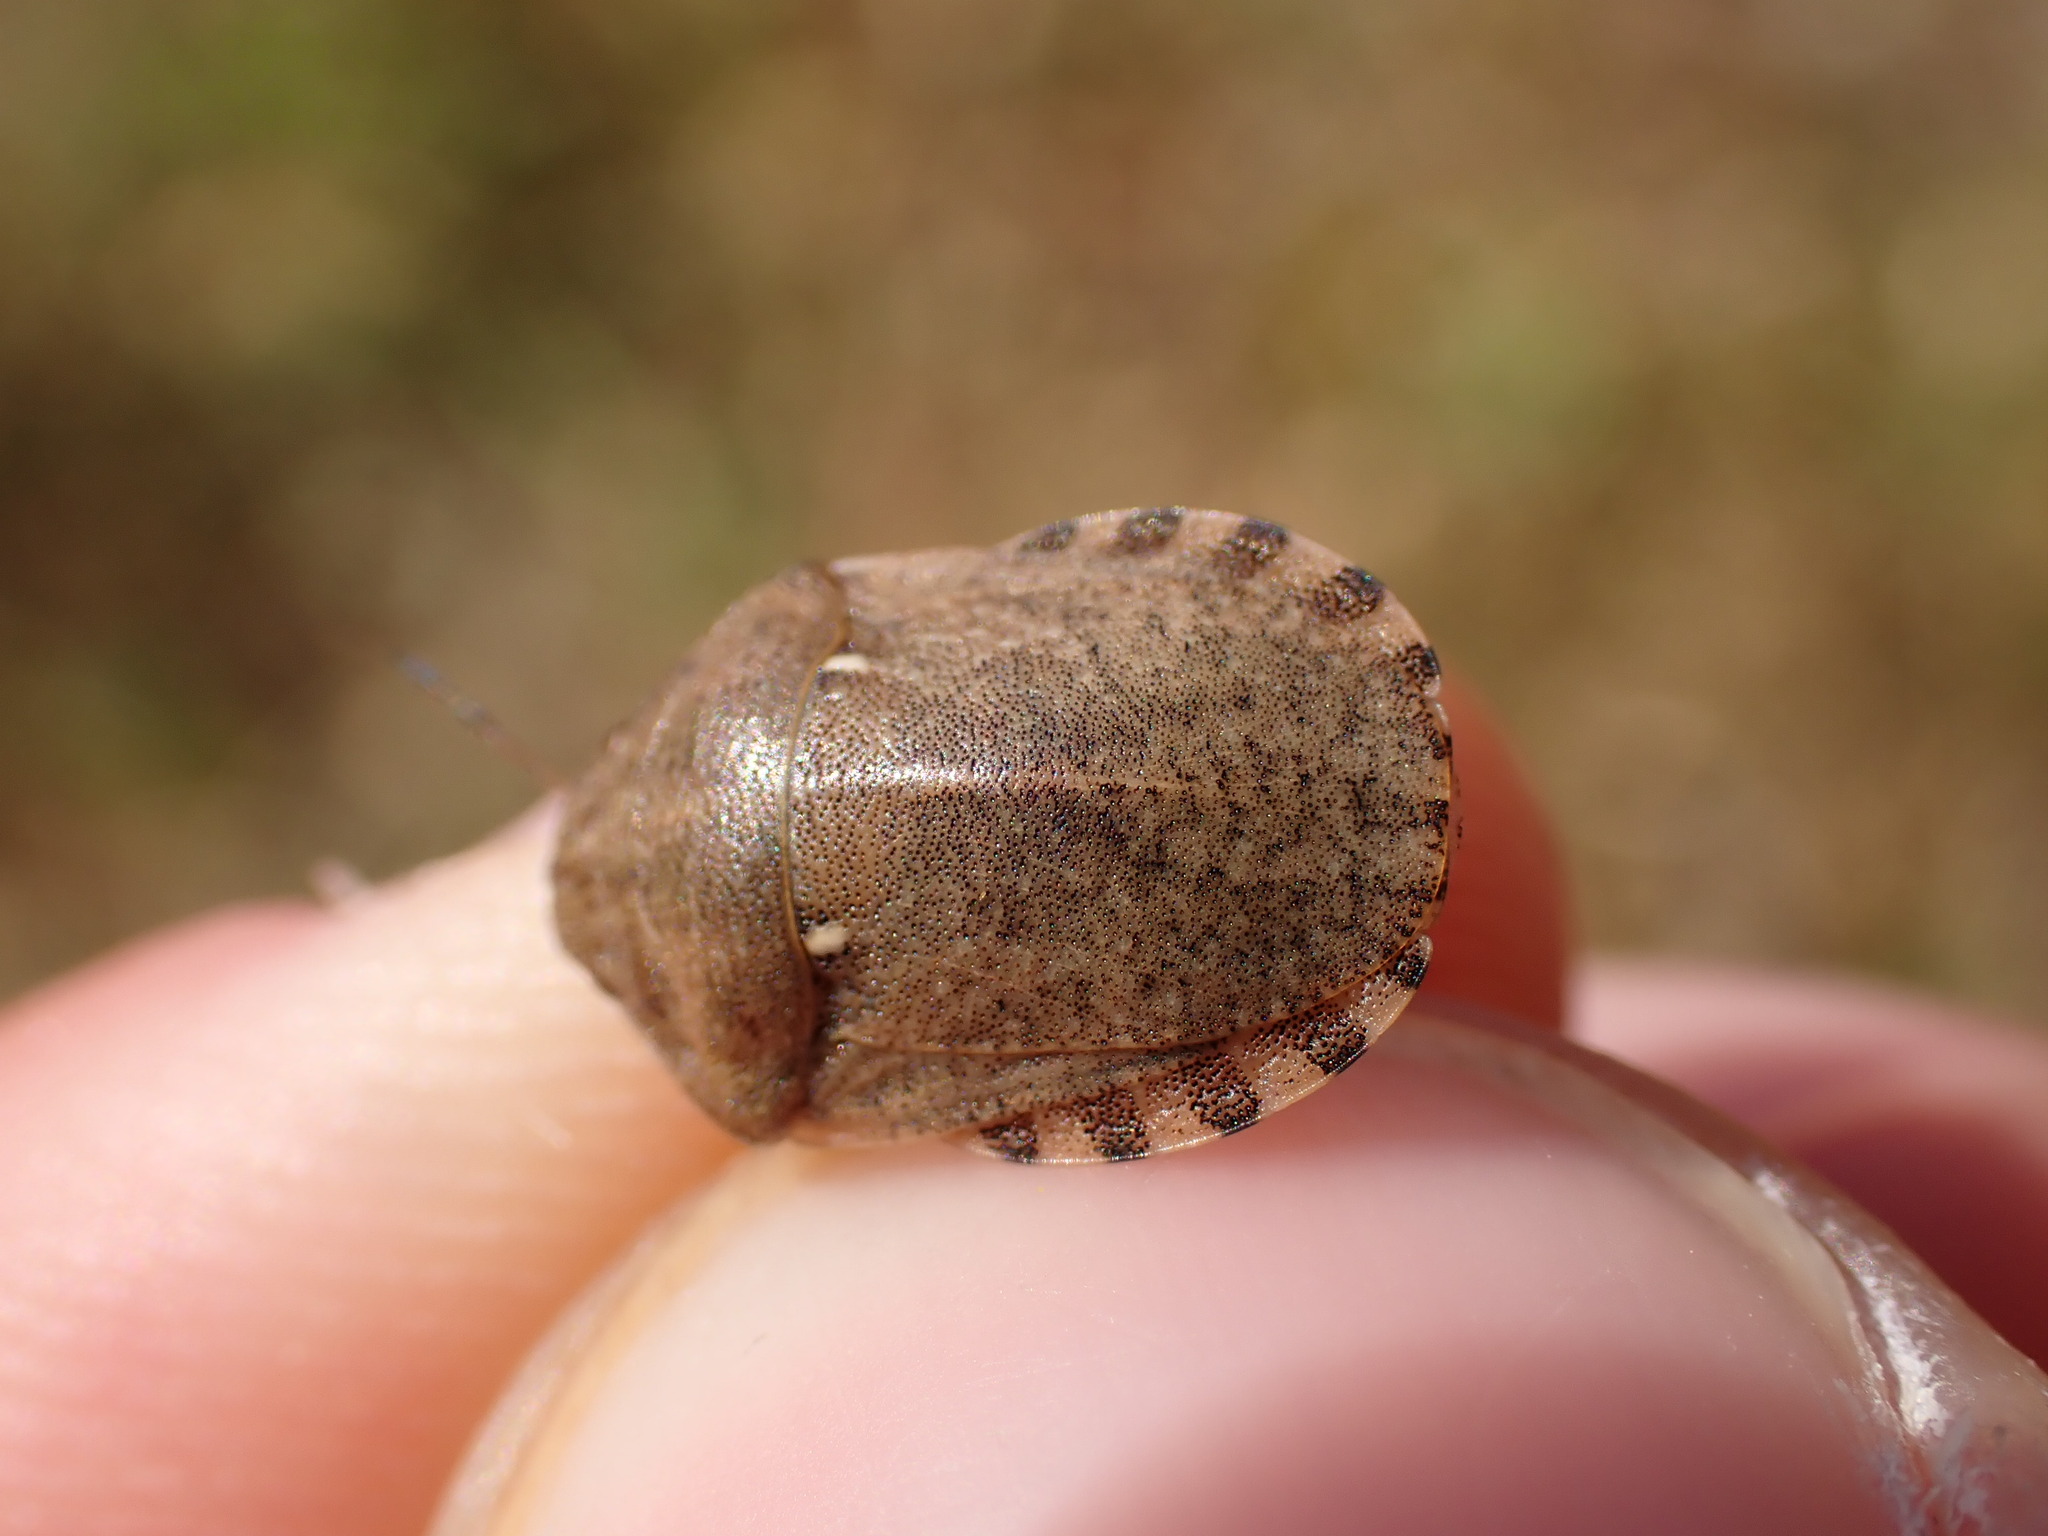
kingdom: Animalia
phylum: Arthropoda
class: Insecta
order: Hemiptera
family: Scutelleridae
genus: Eurygaster
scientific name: Eurygaster maura
